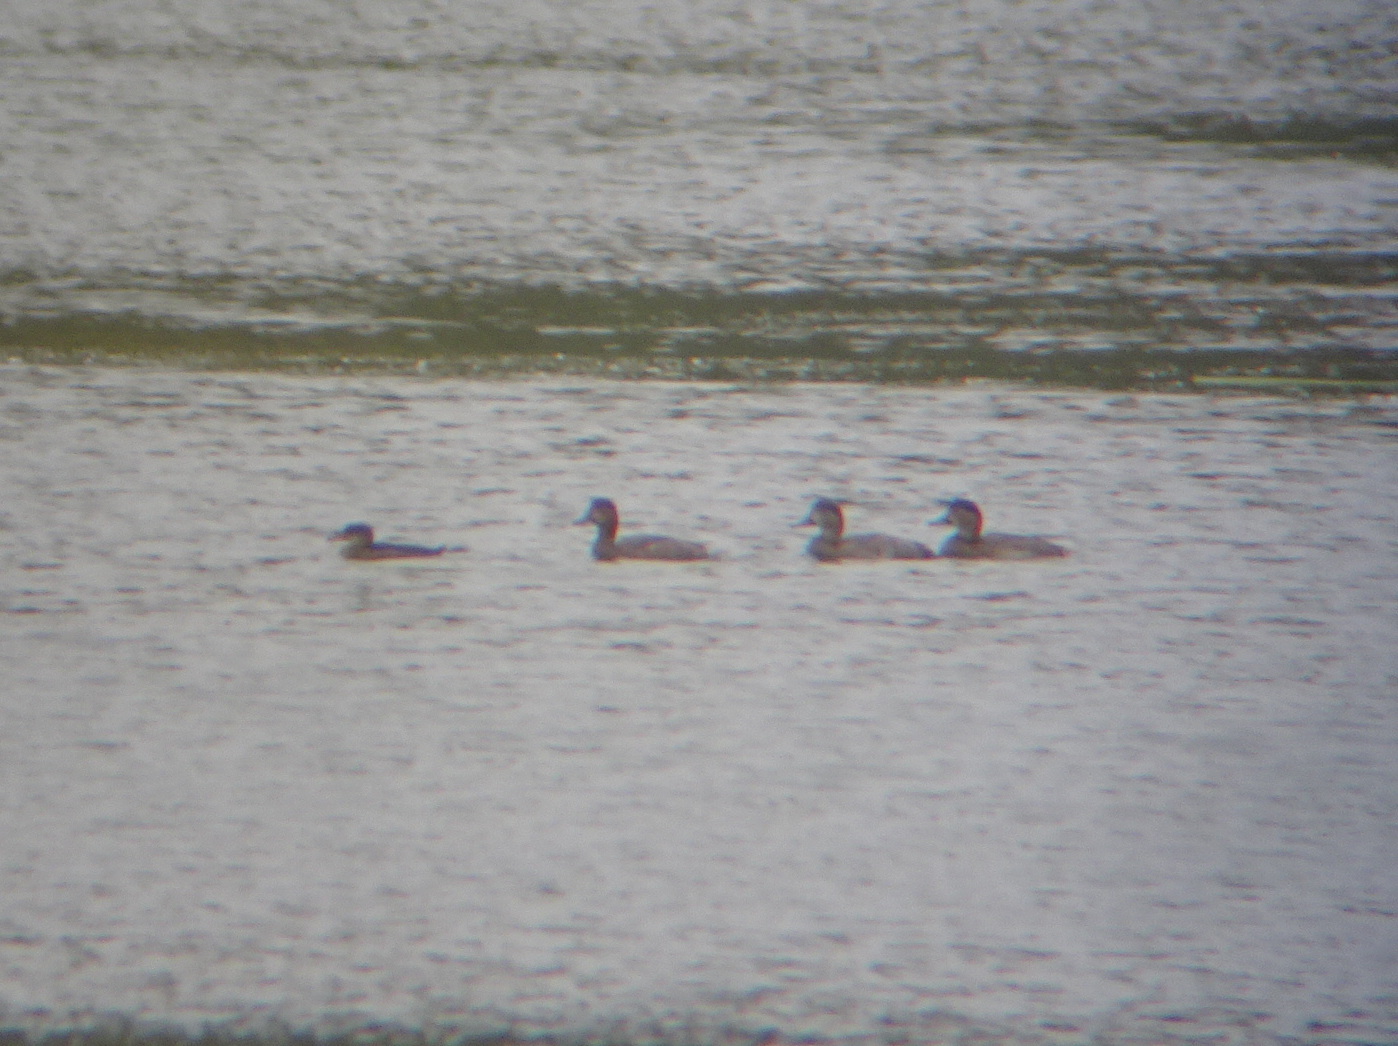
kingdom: Animalia
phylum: Chordata
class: Aves
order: Anseriformes
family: Anatidae
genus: Lophodytes
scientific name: Lophodytes cucullatus
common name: Hooded merganser
